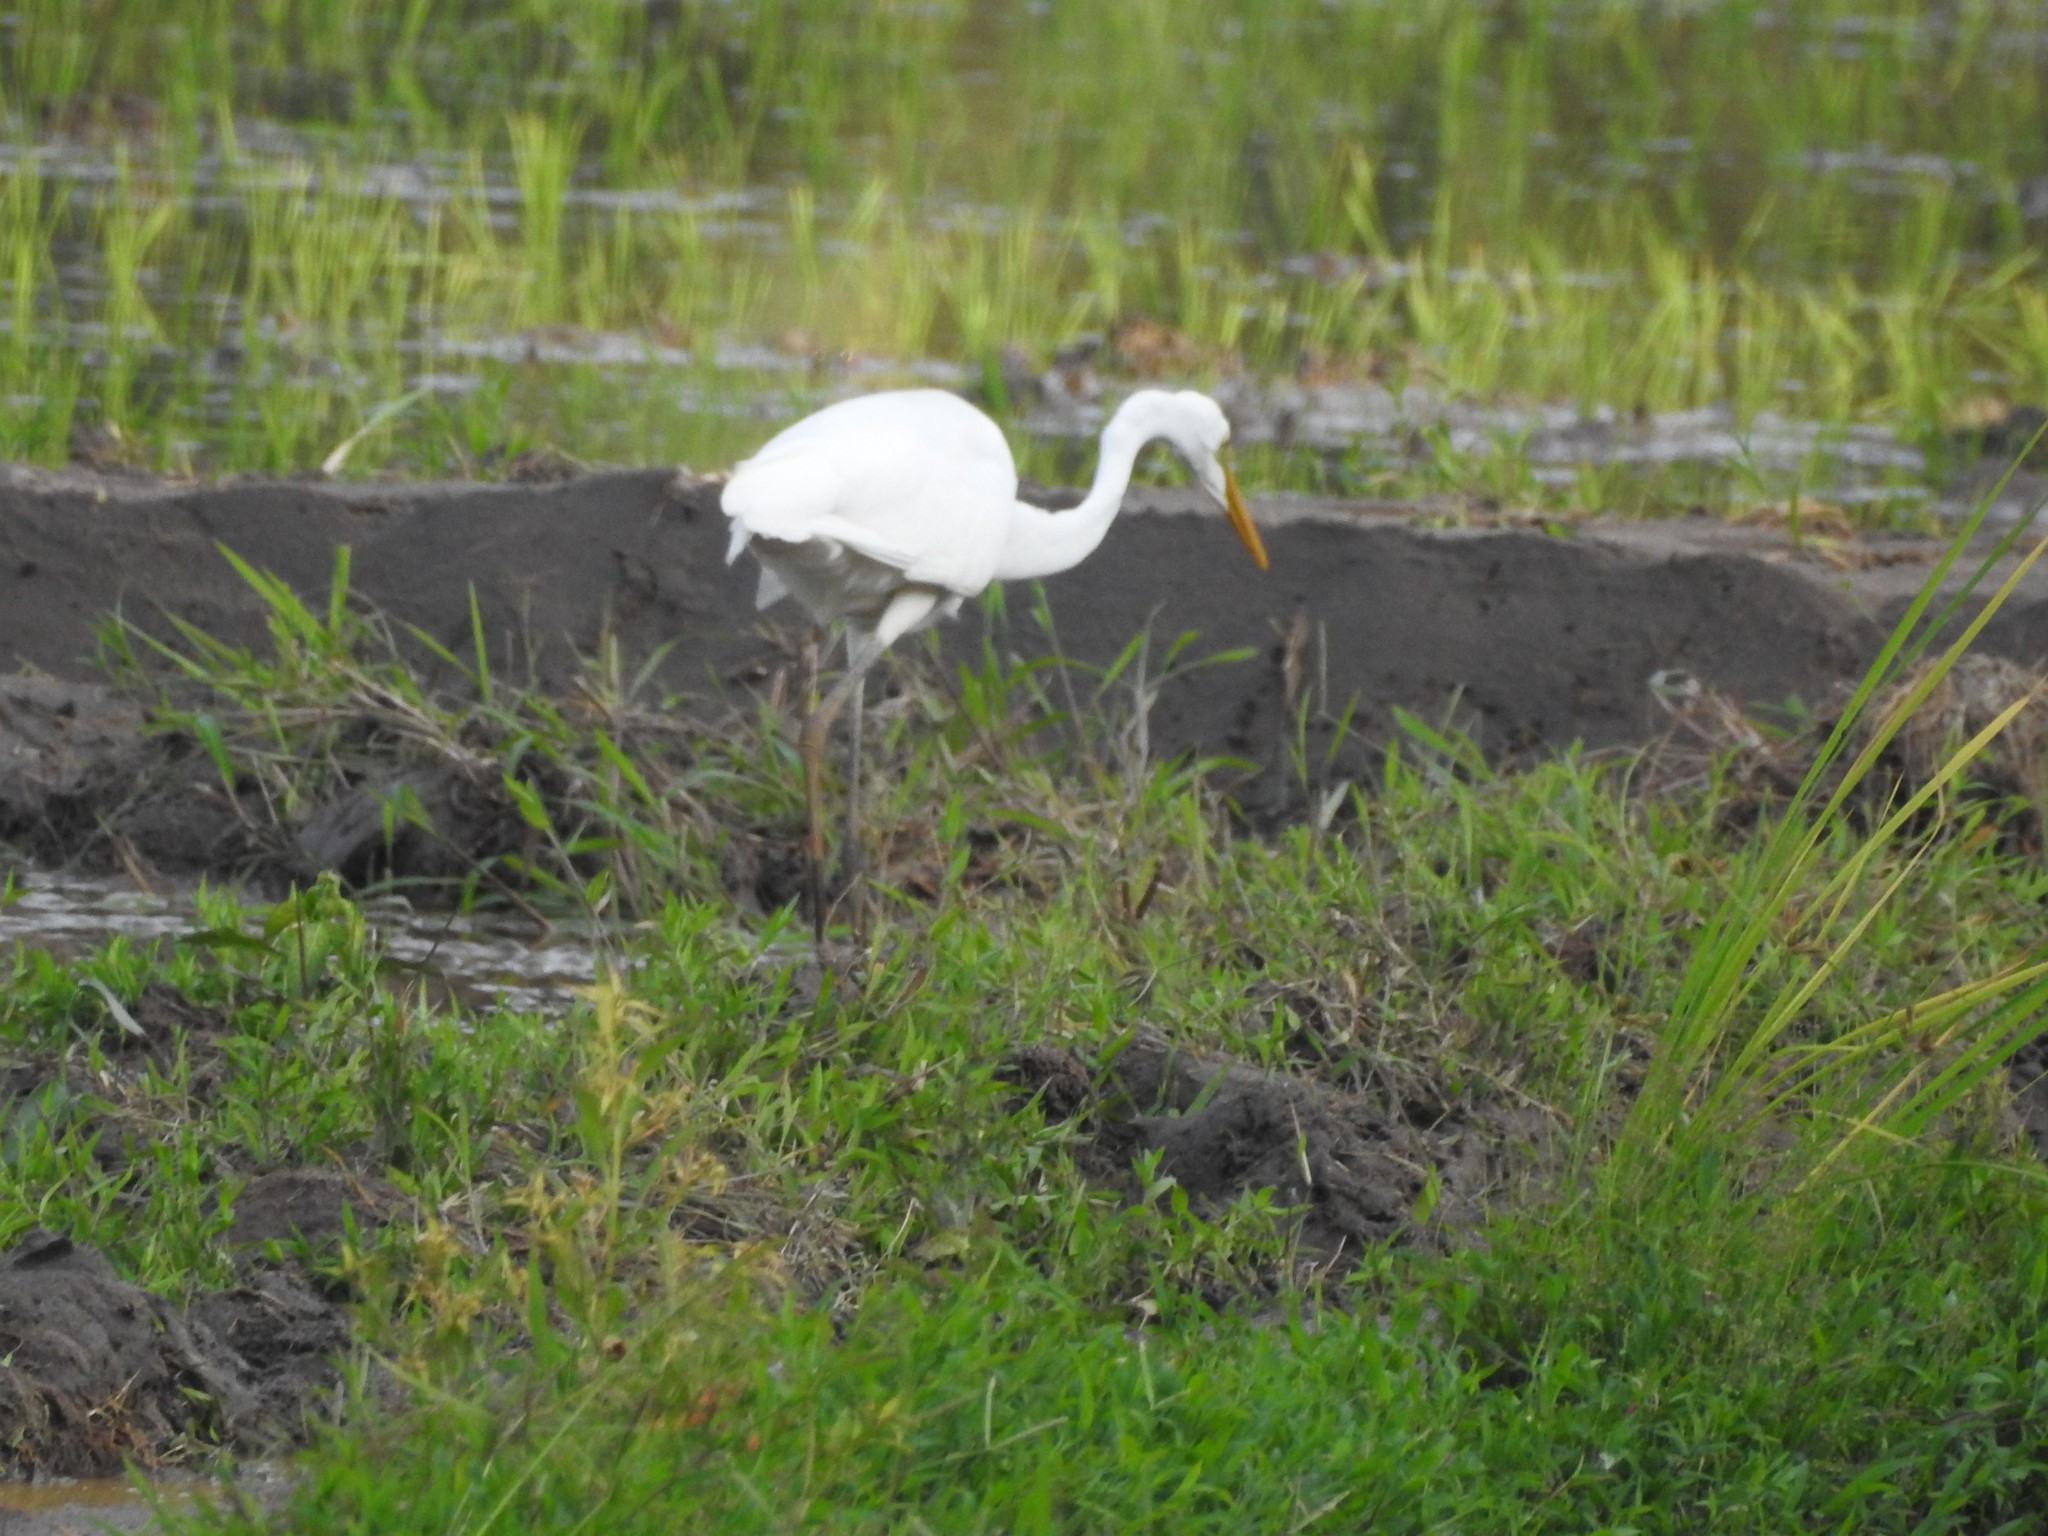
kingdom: Animalia
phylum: Chordata
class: Aves
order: Pelecaniformes
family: Ardeidae
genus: Egretta
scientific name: Egretta intermedia
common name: Intermediate egret
